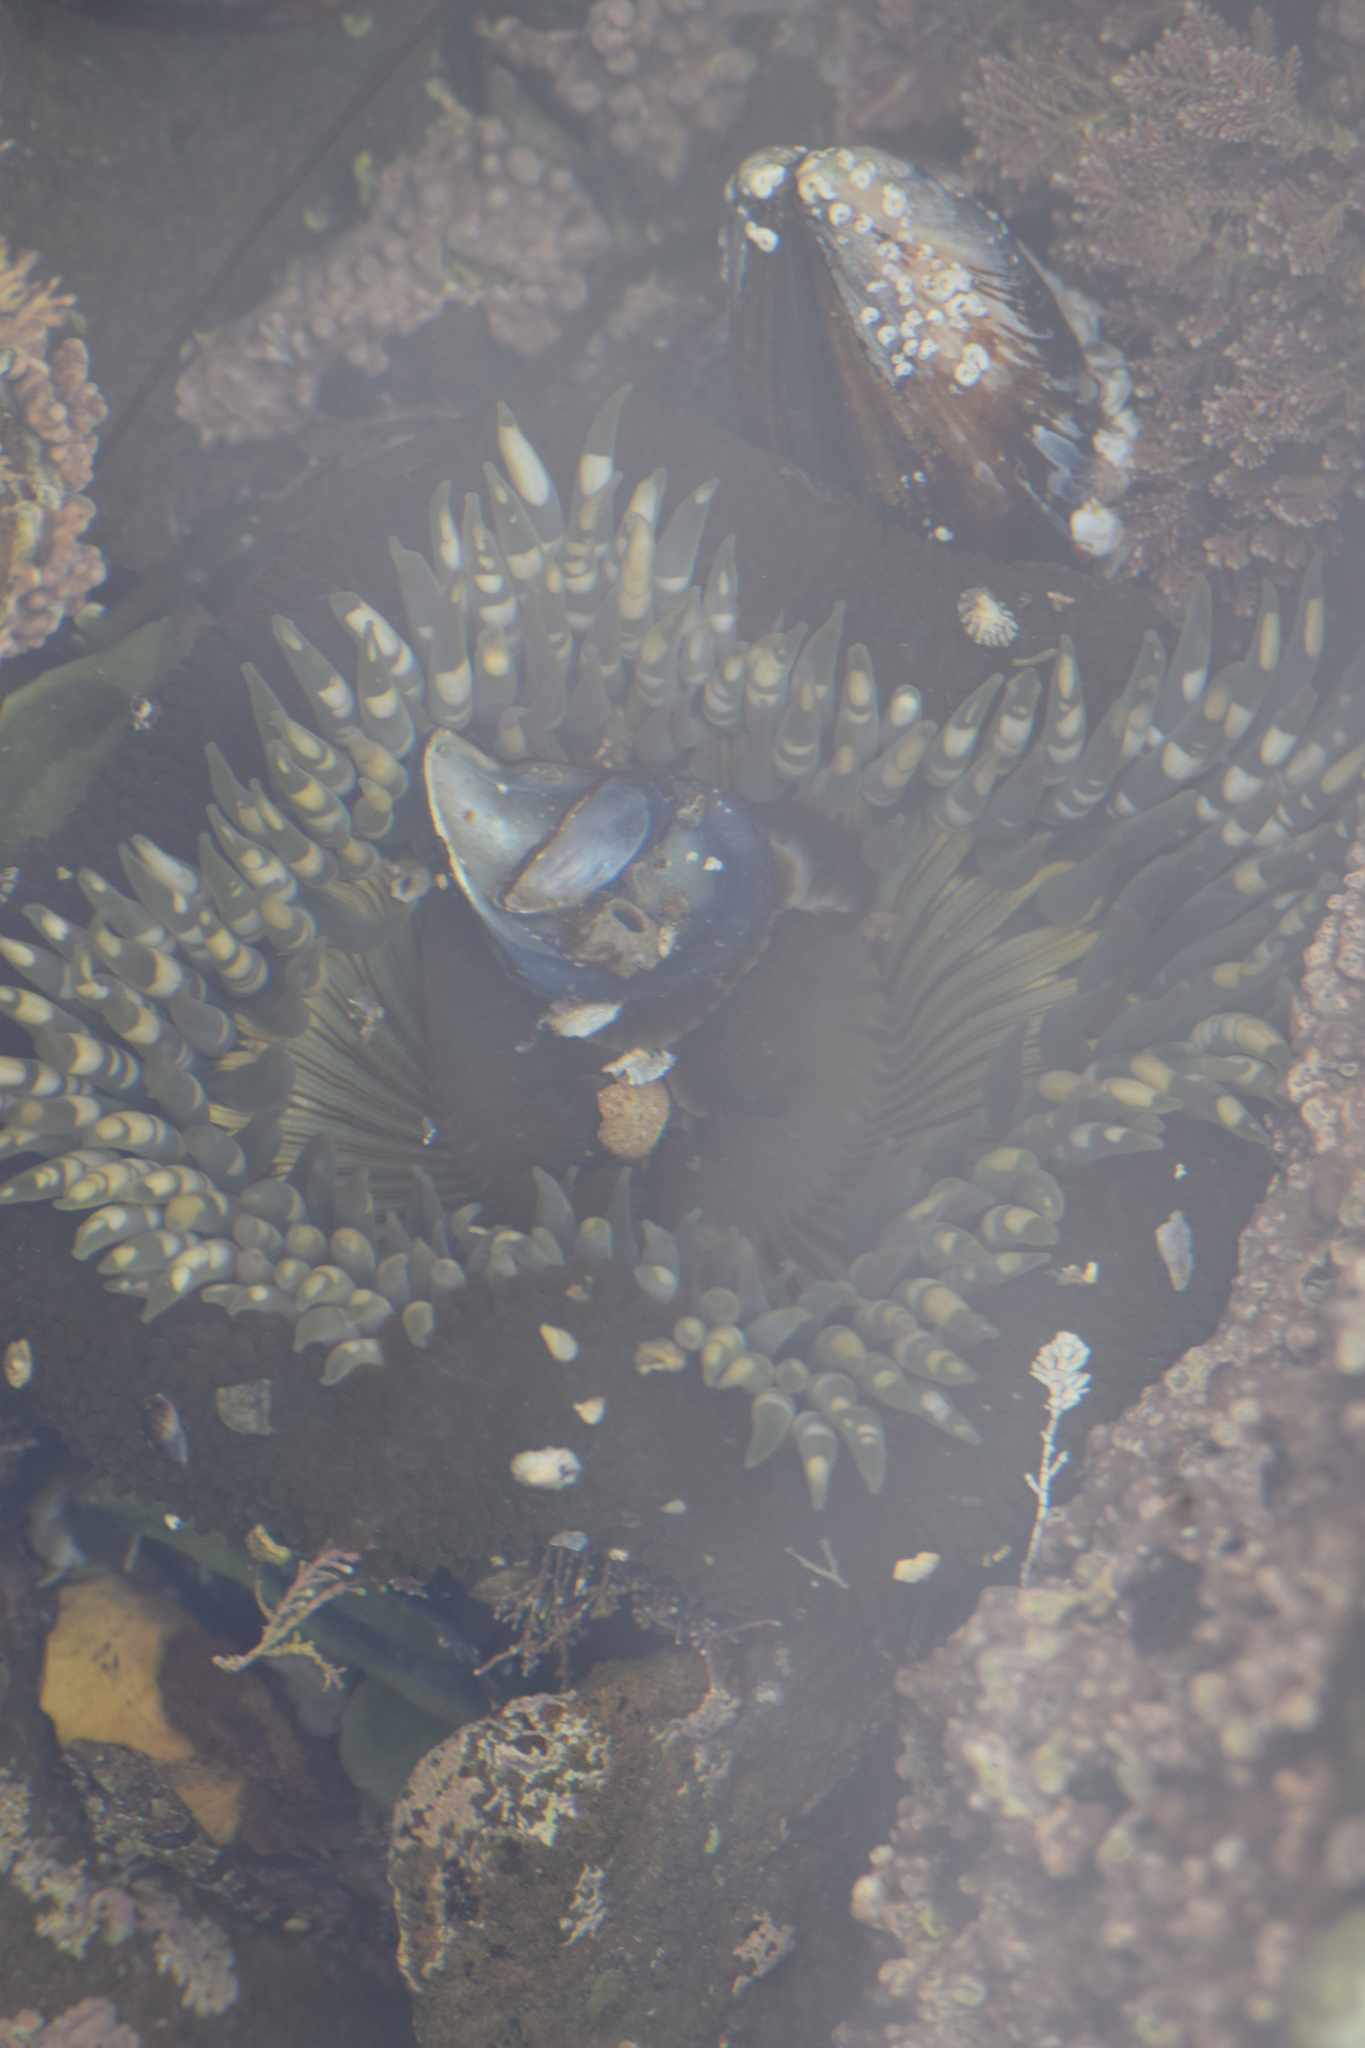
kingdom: Animalia
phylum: Cnidaria
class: Anthozoa
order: Actiniaria
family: Actiniidae
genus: Anthopleura
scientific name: Anthopleura sola
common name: Sun anemone
